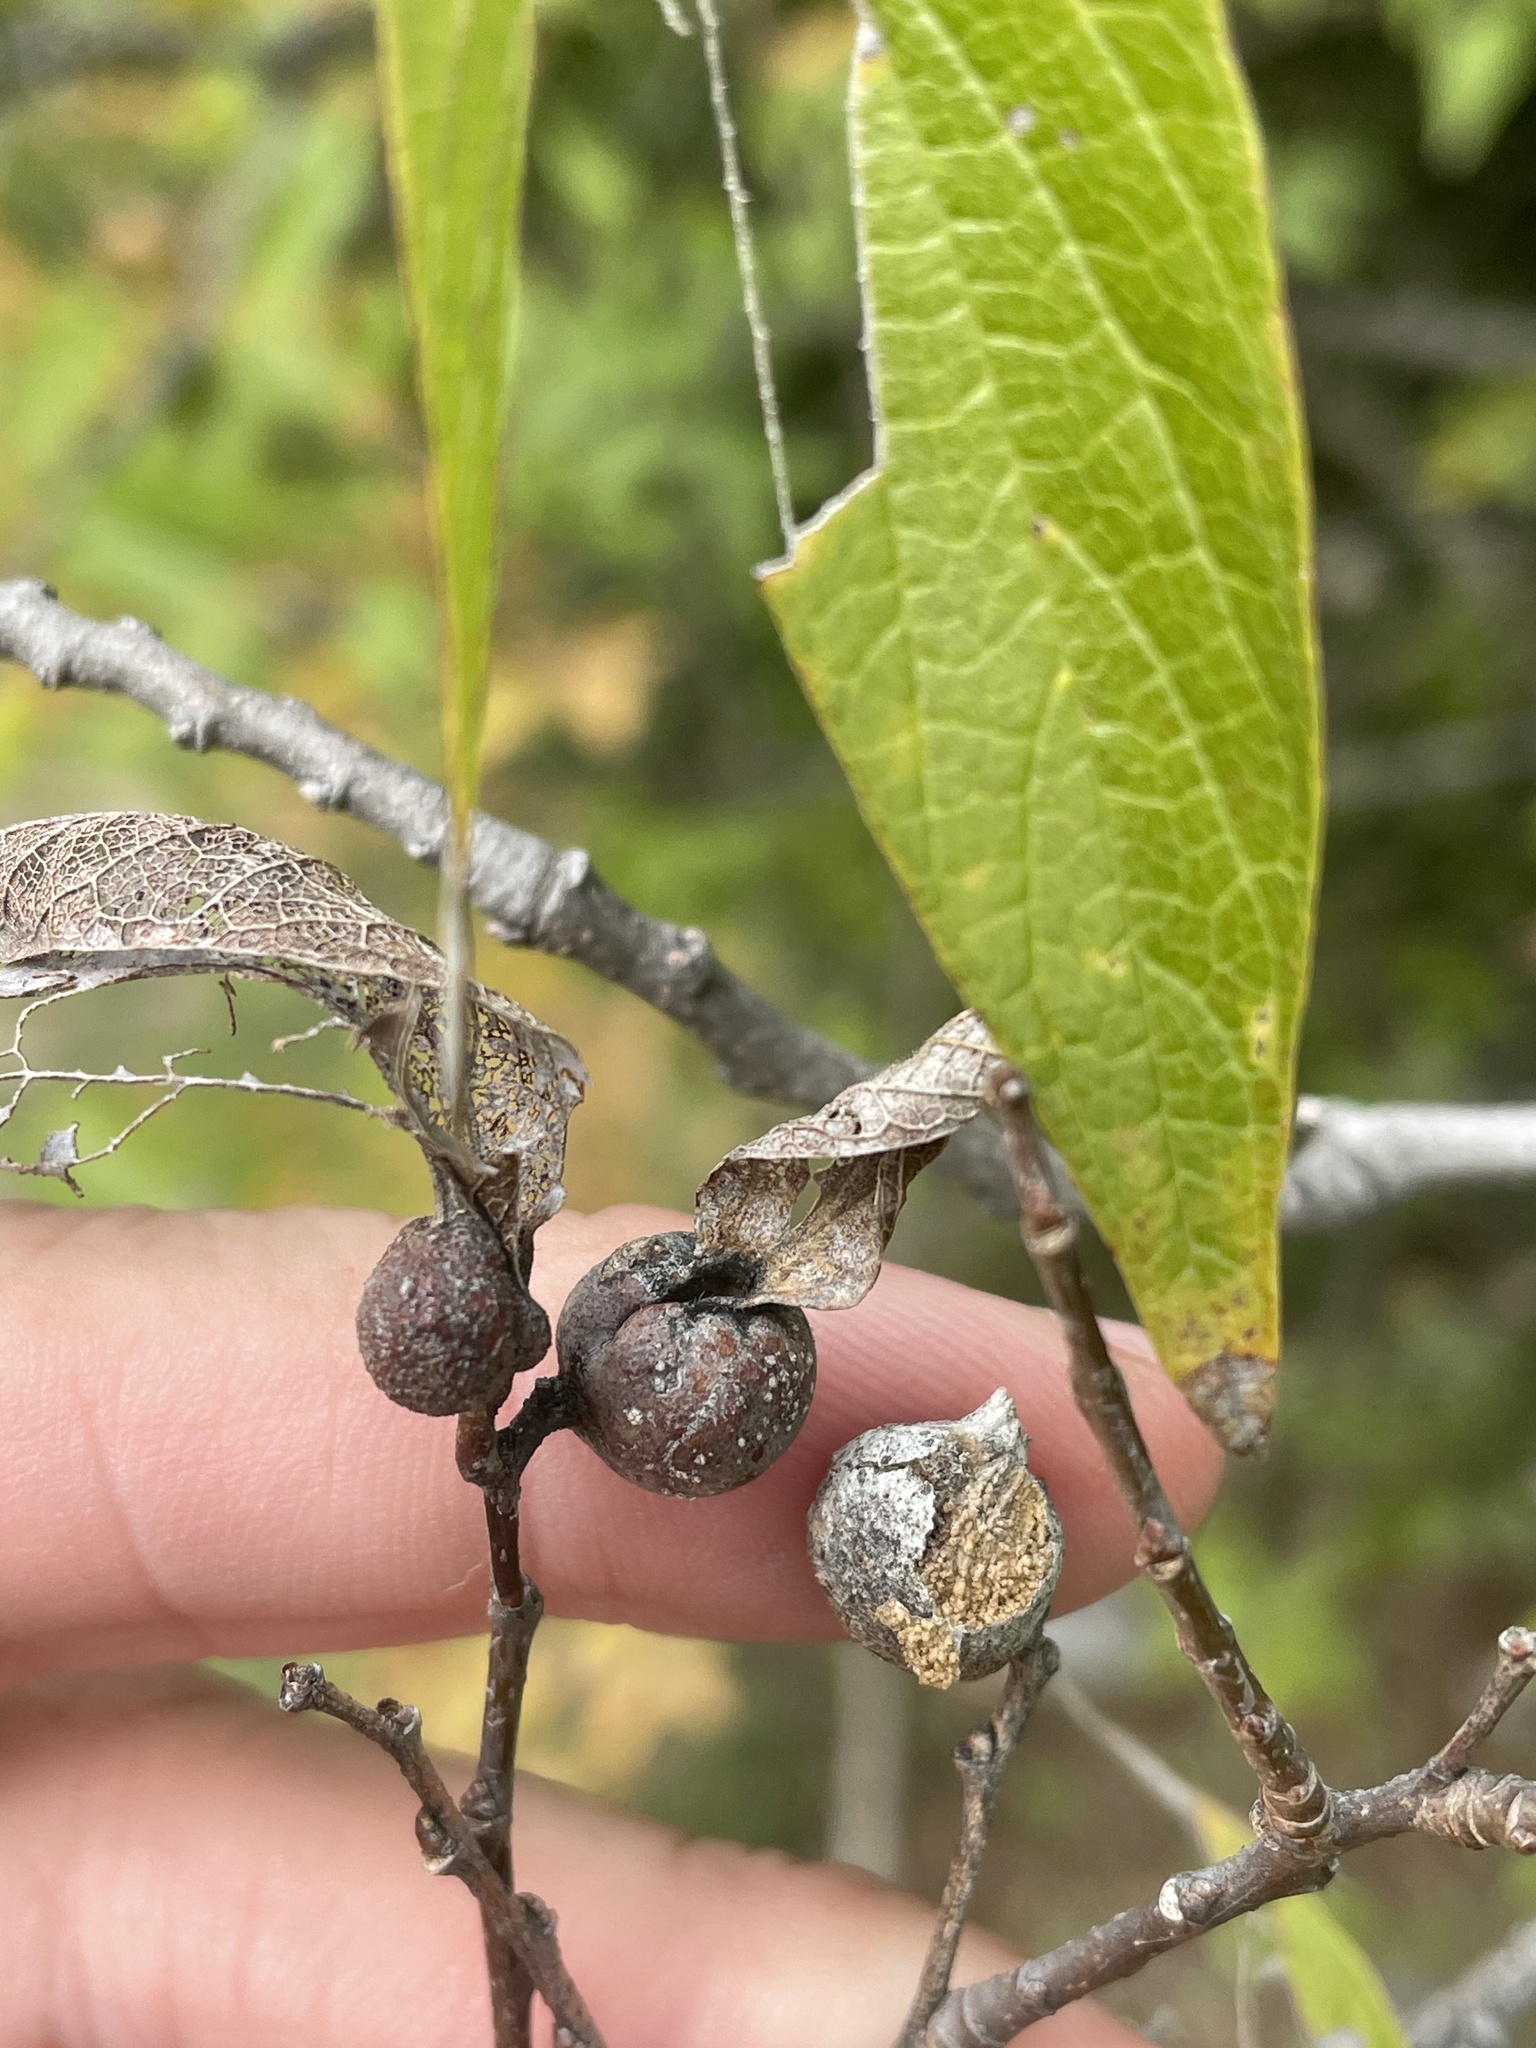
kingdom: Animalia
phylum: Arthropoda
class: Insecta
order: Hemiptera
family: Aphalaridae
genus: Pachypsylla
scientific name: Pachypsylla venusta
